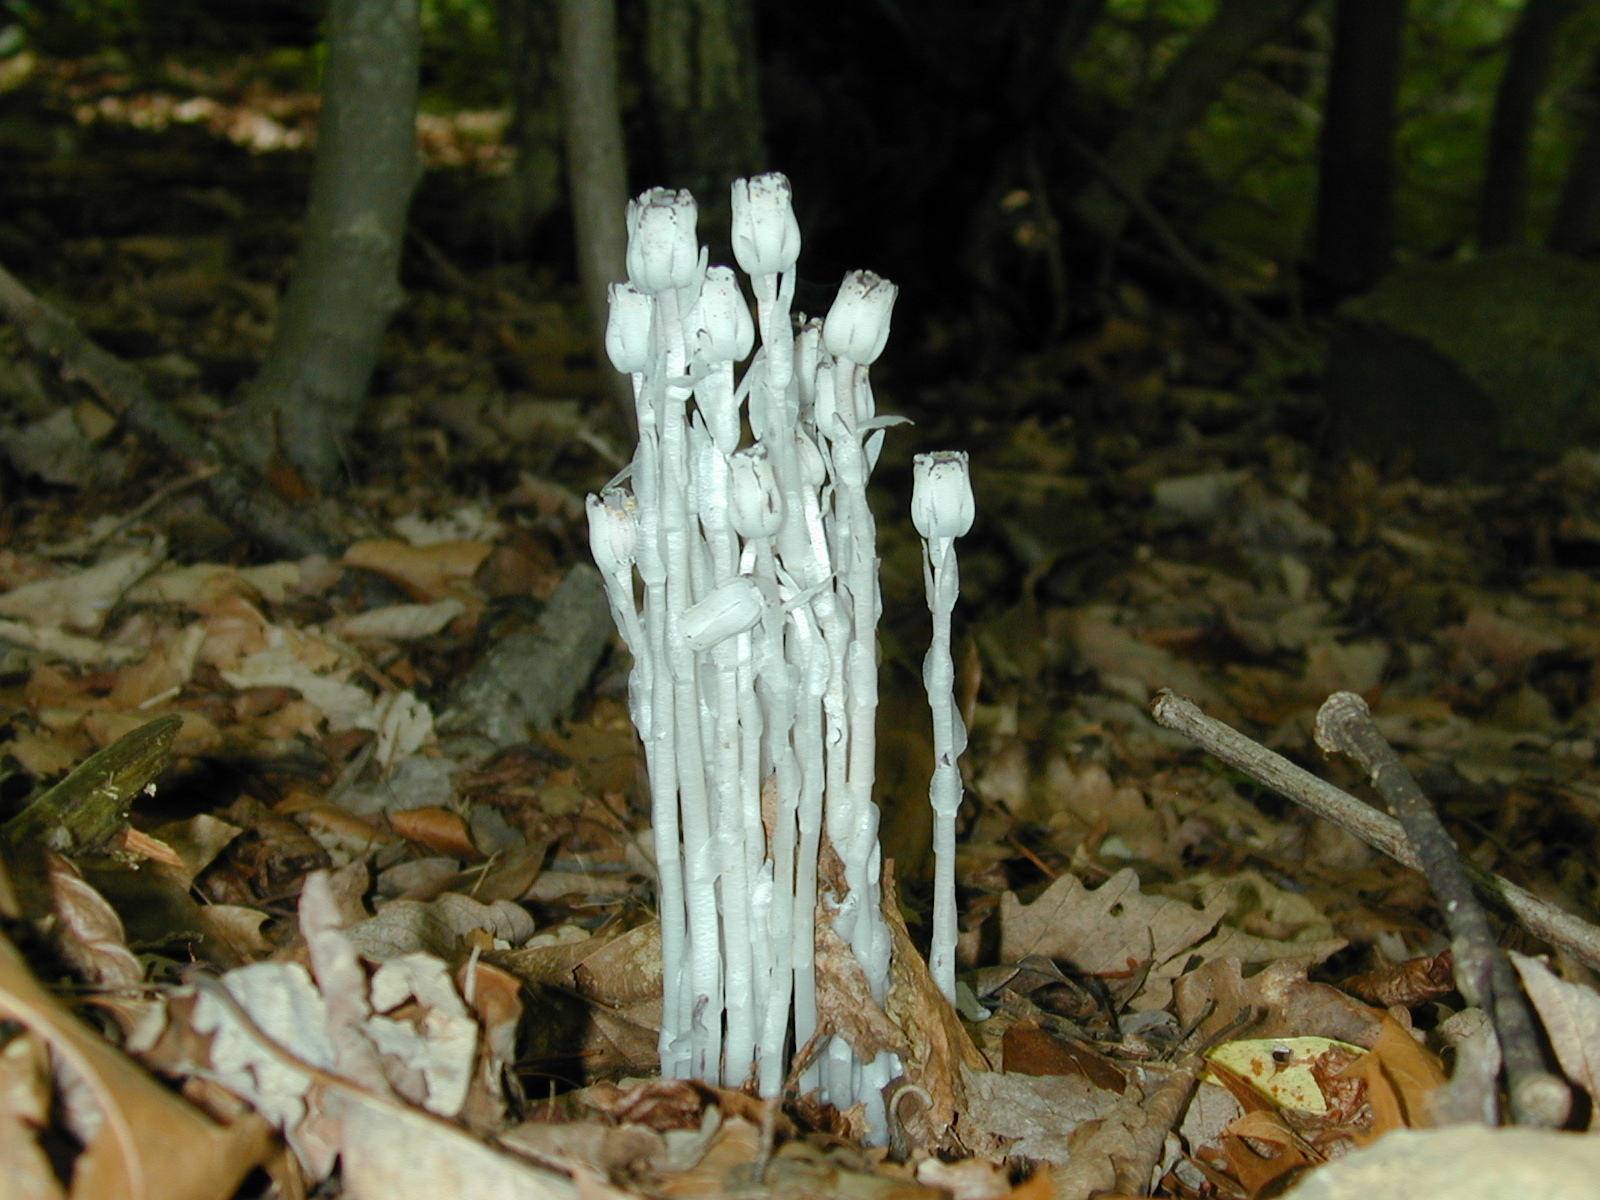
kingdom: Plantae
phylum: Tracheophyta
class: Magnoliopsida
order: Ericales
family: Ericaceae
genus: Monotropa
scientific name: Monotropa uniflora
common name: Convulsion root
